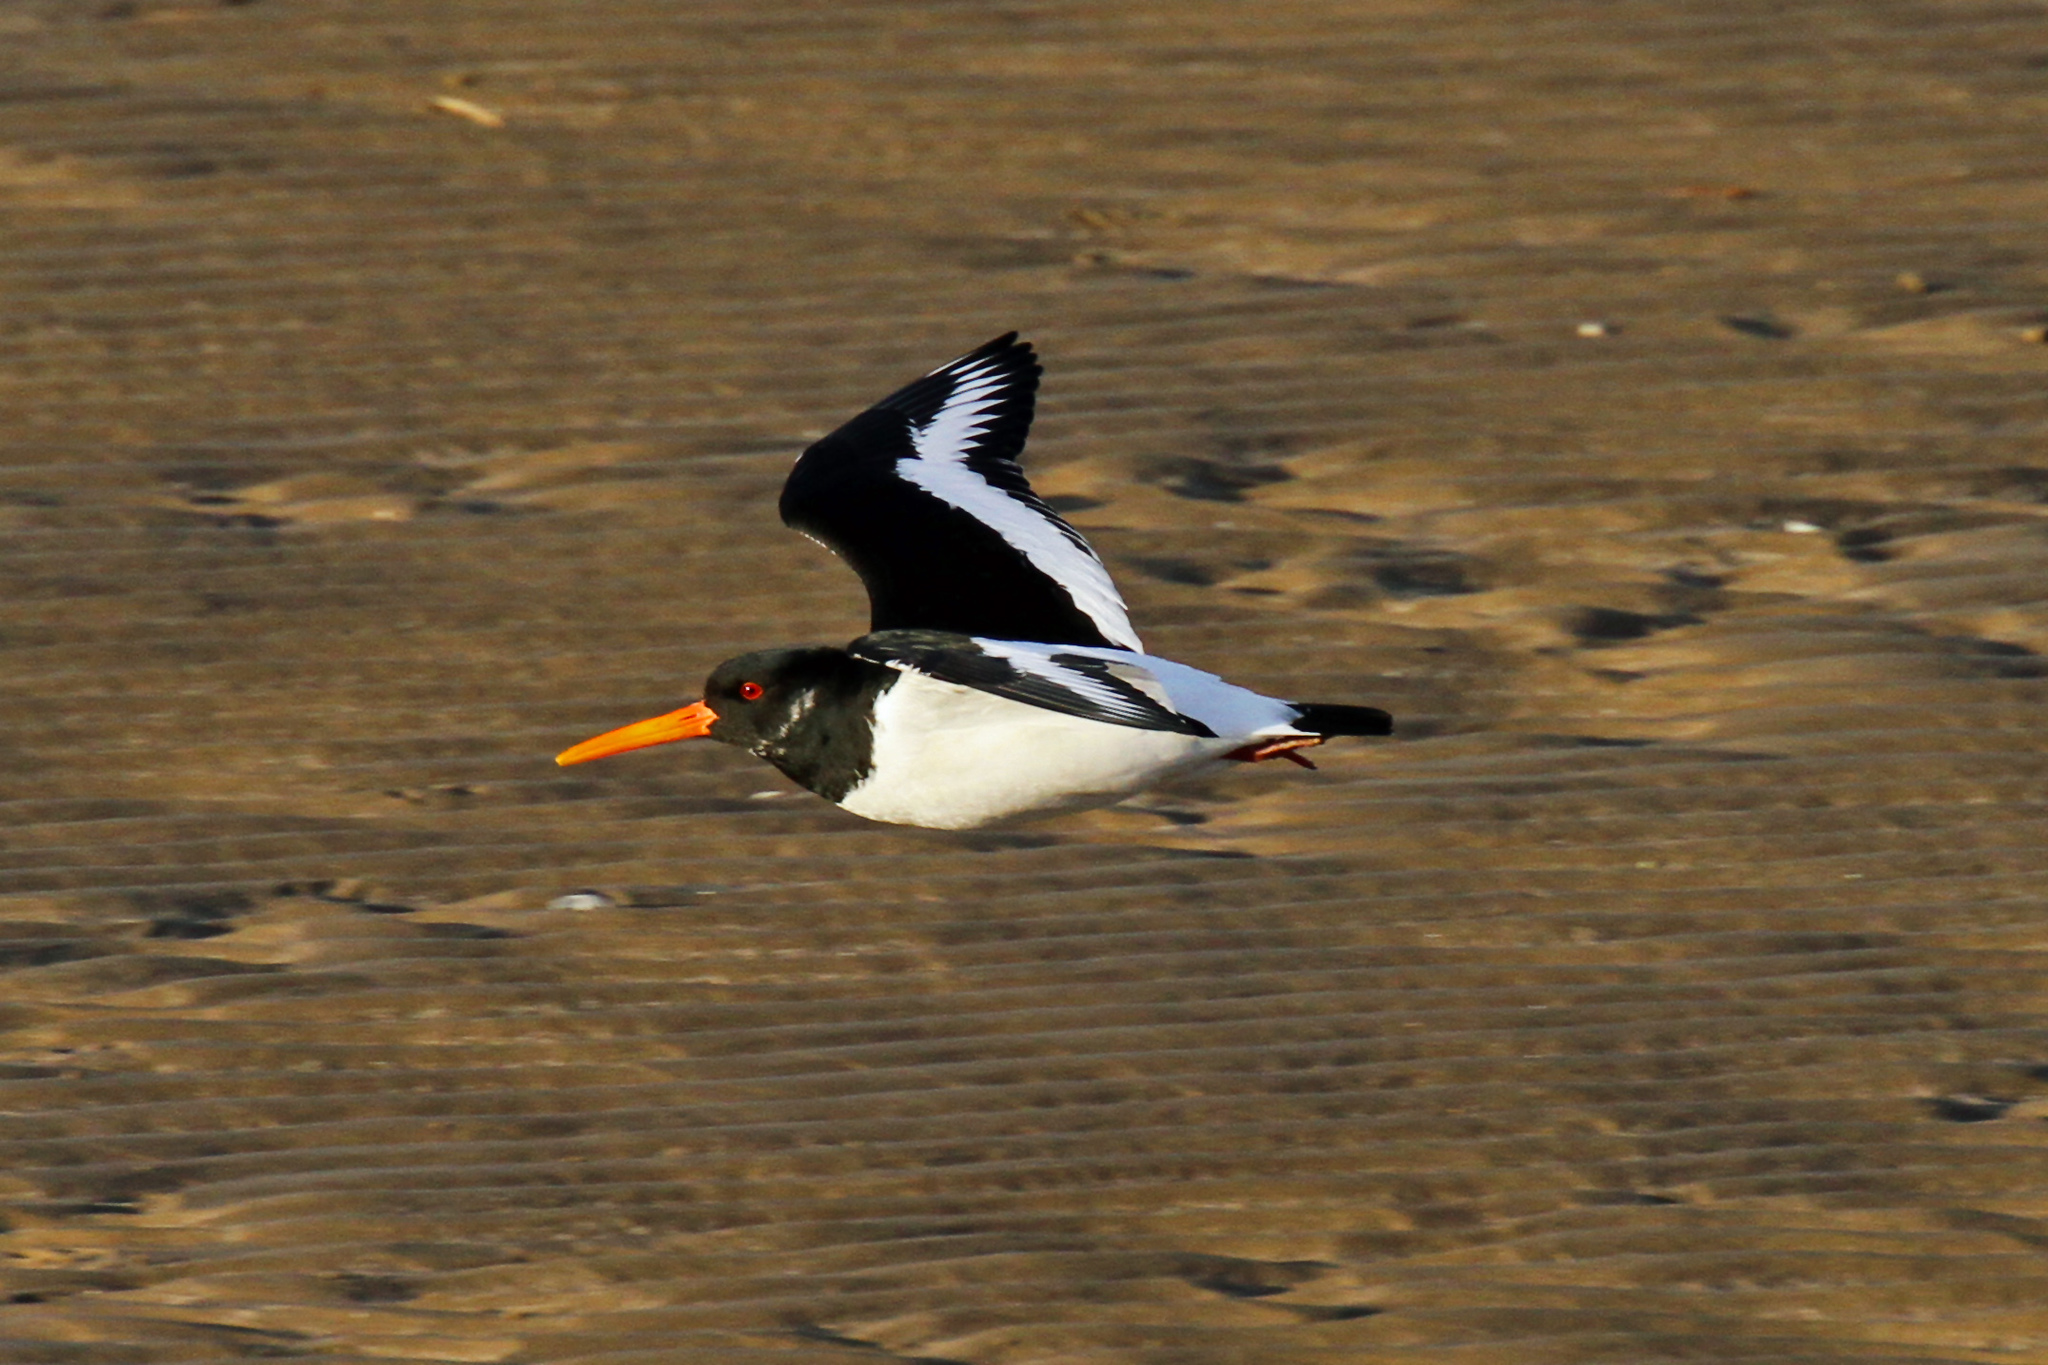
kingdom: Animalia
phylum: Chordata
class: Aves
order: Charadriiformes
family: Haematopodidae
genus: Haematopus
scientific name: Haematopus ostralegus
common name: Eurasian oystercatcher
